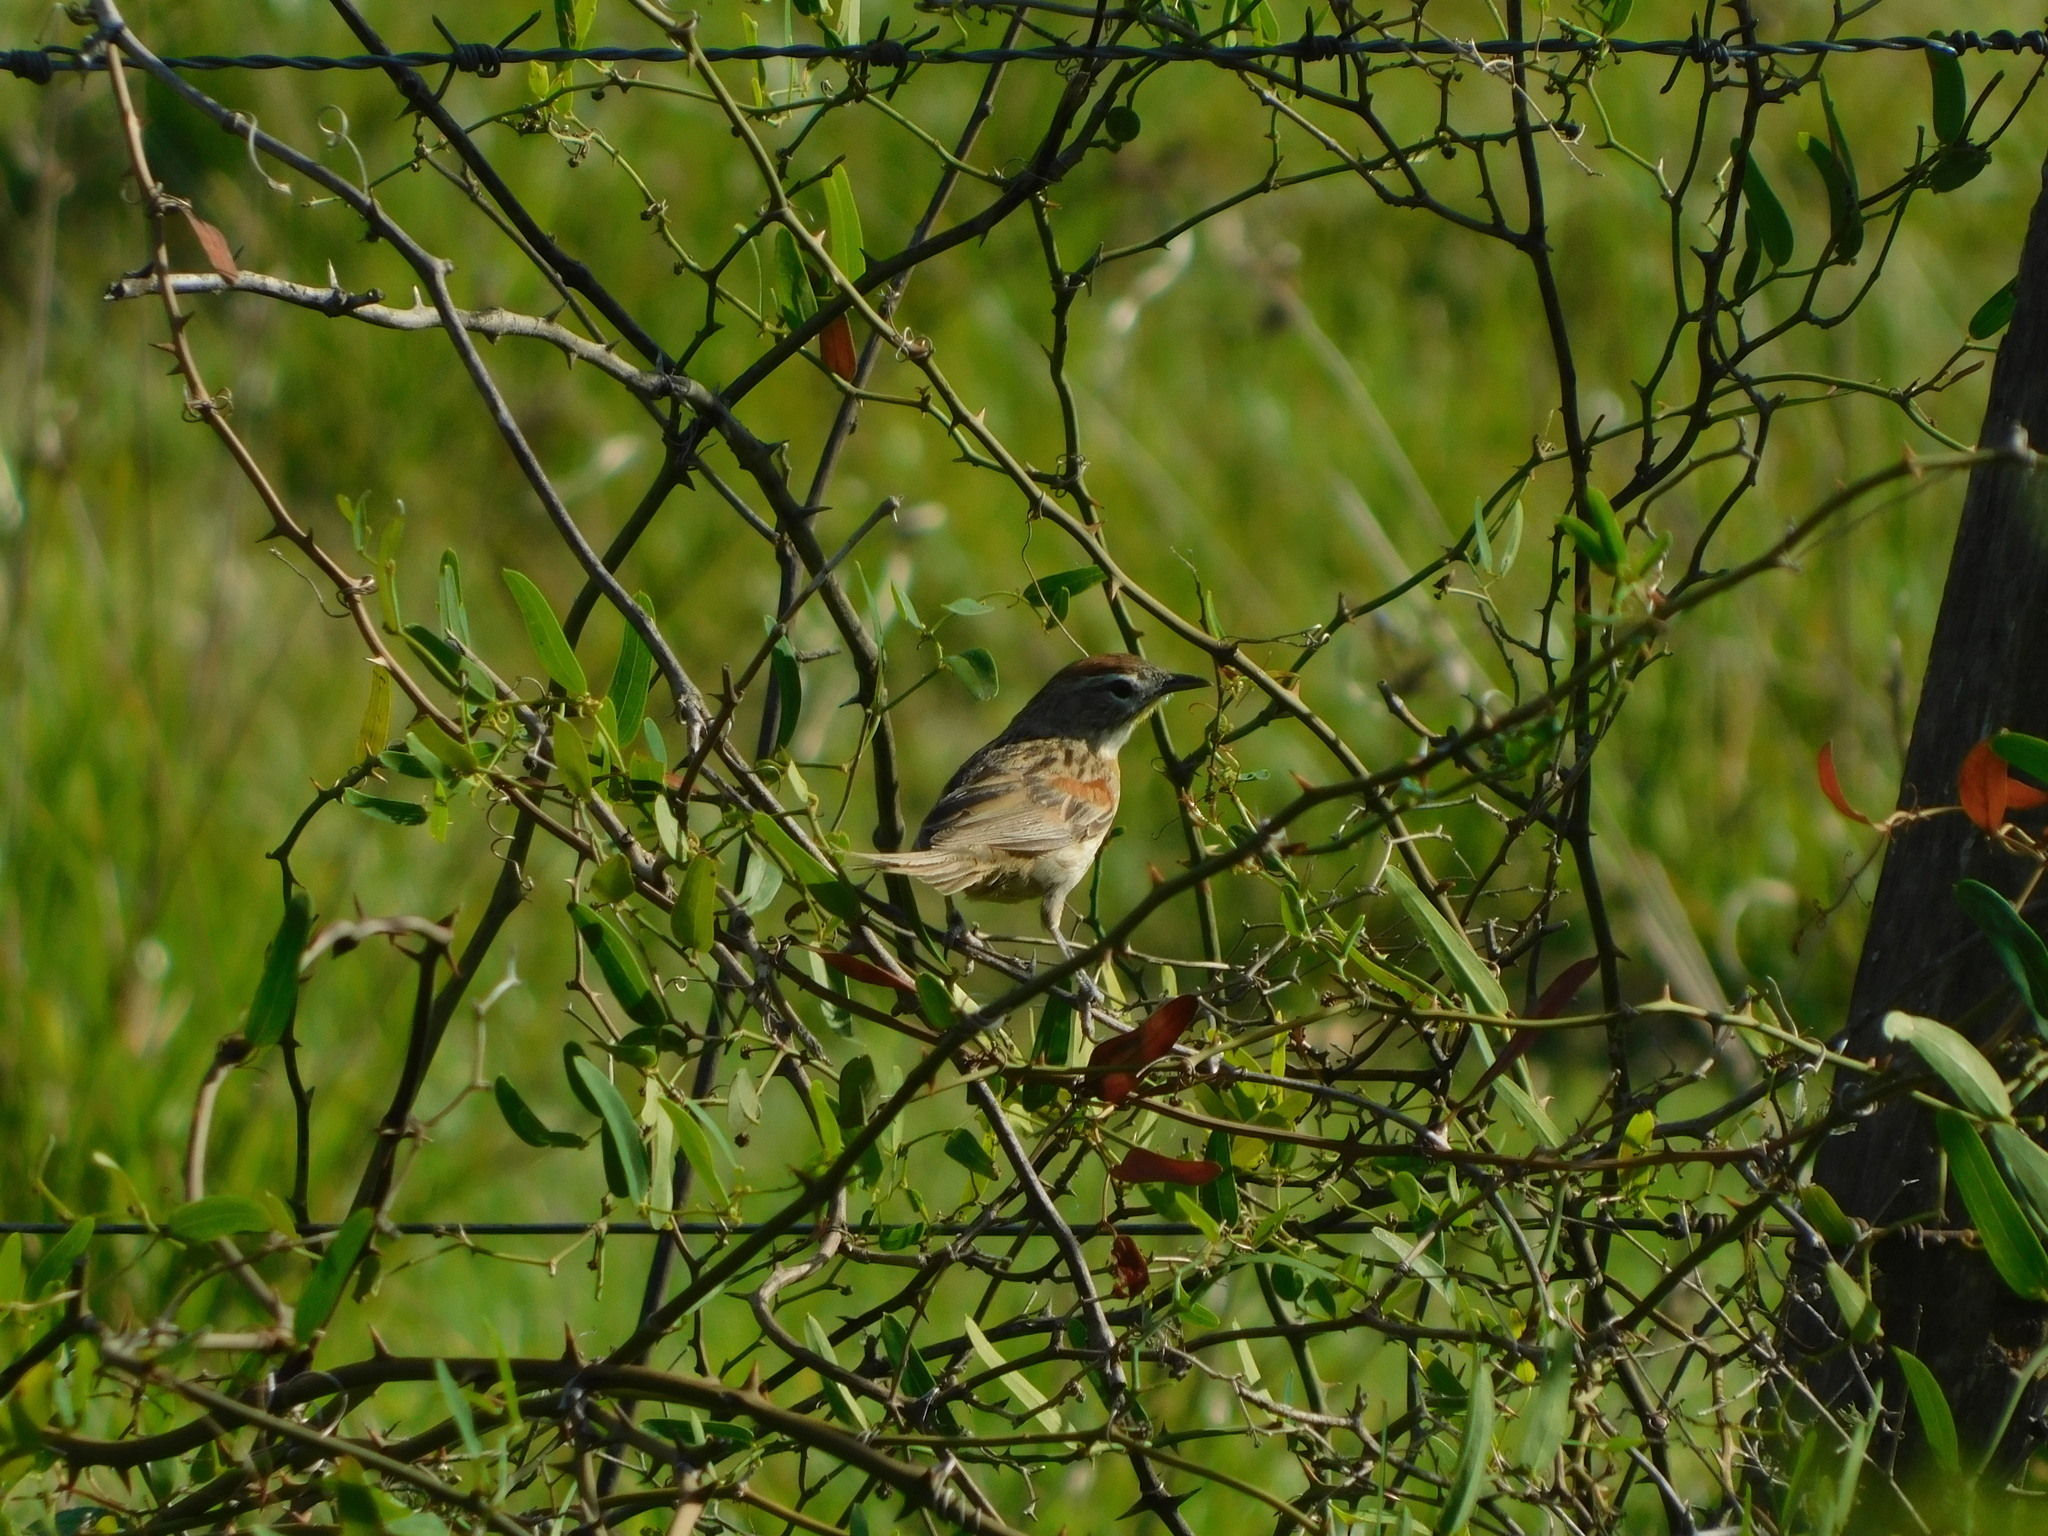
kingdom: Animalia
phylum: Chordata
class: Aves
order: Passeriformes
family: Furnariidae
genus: Schoeniophylax
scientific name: Schoeniophylax phryganophilus
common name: Chotoy spinetail
